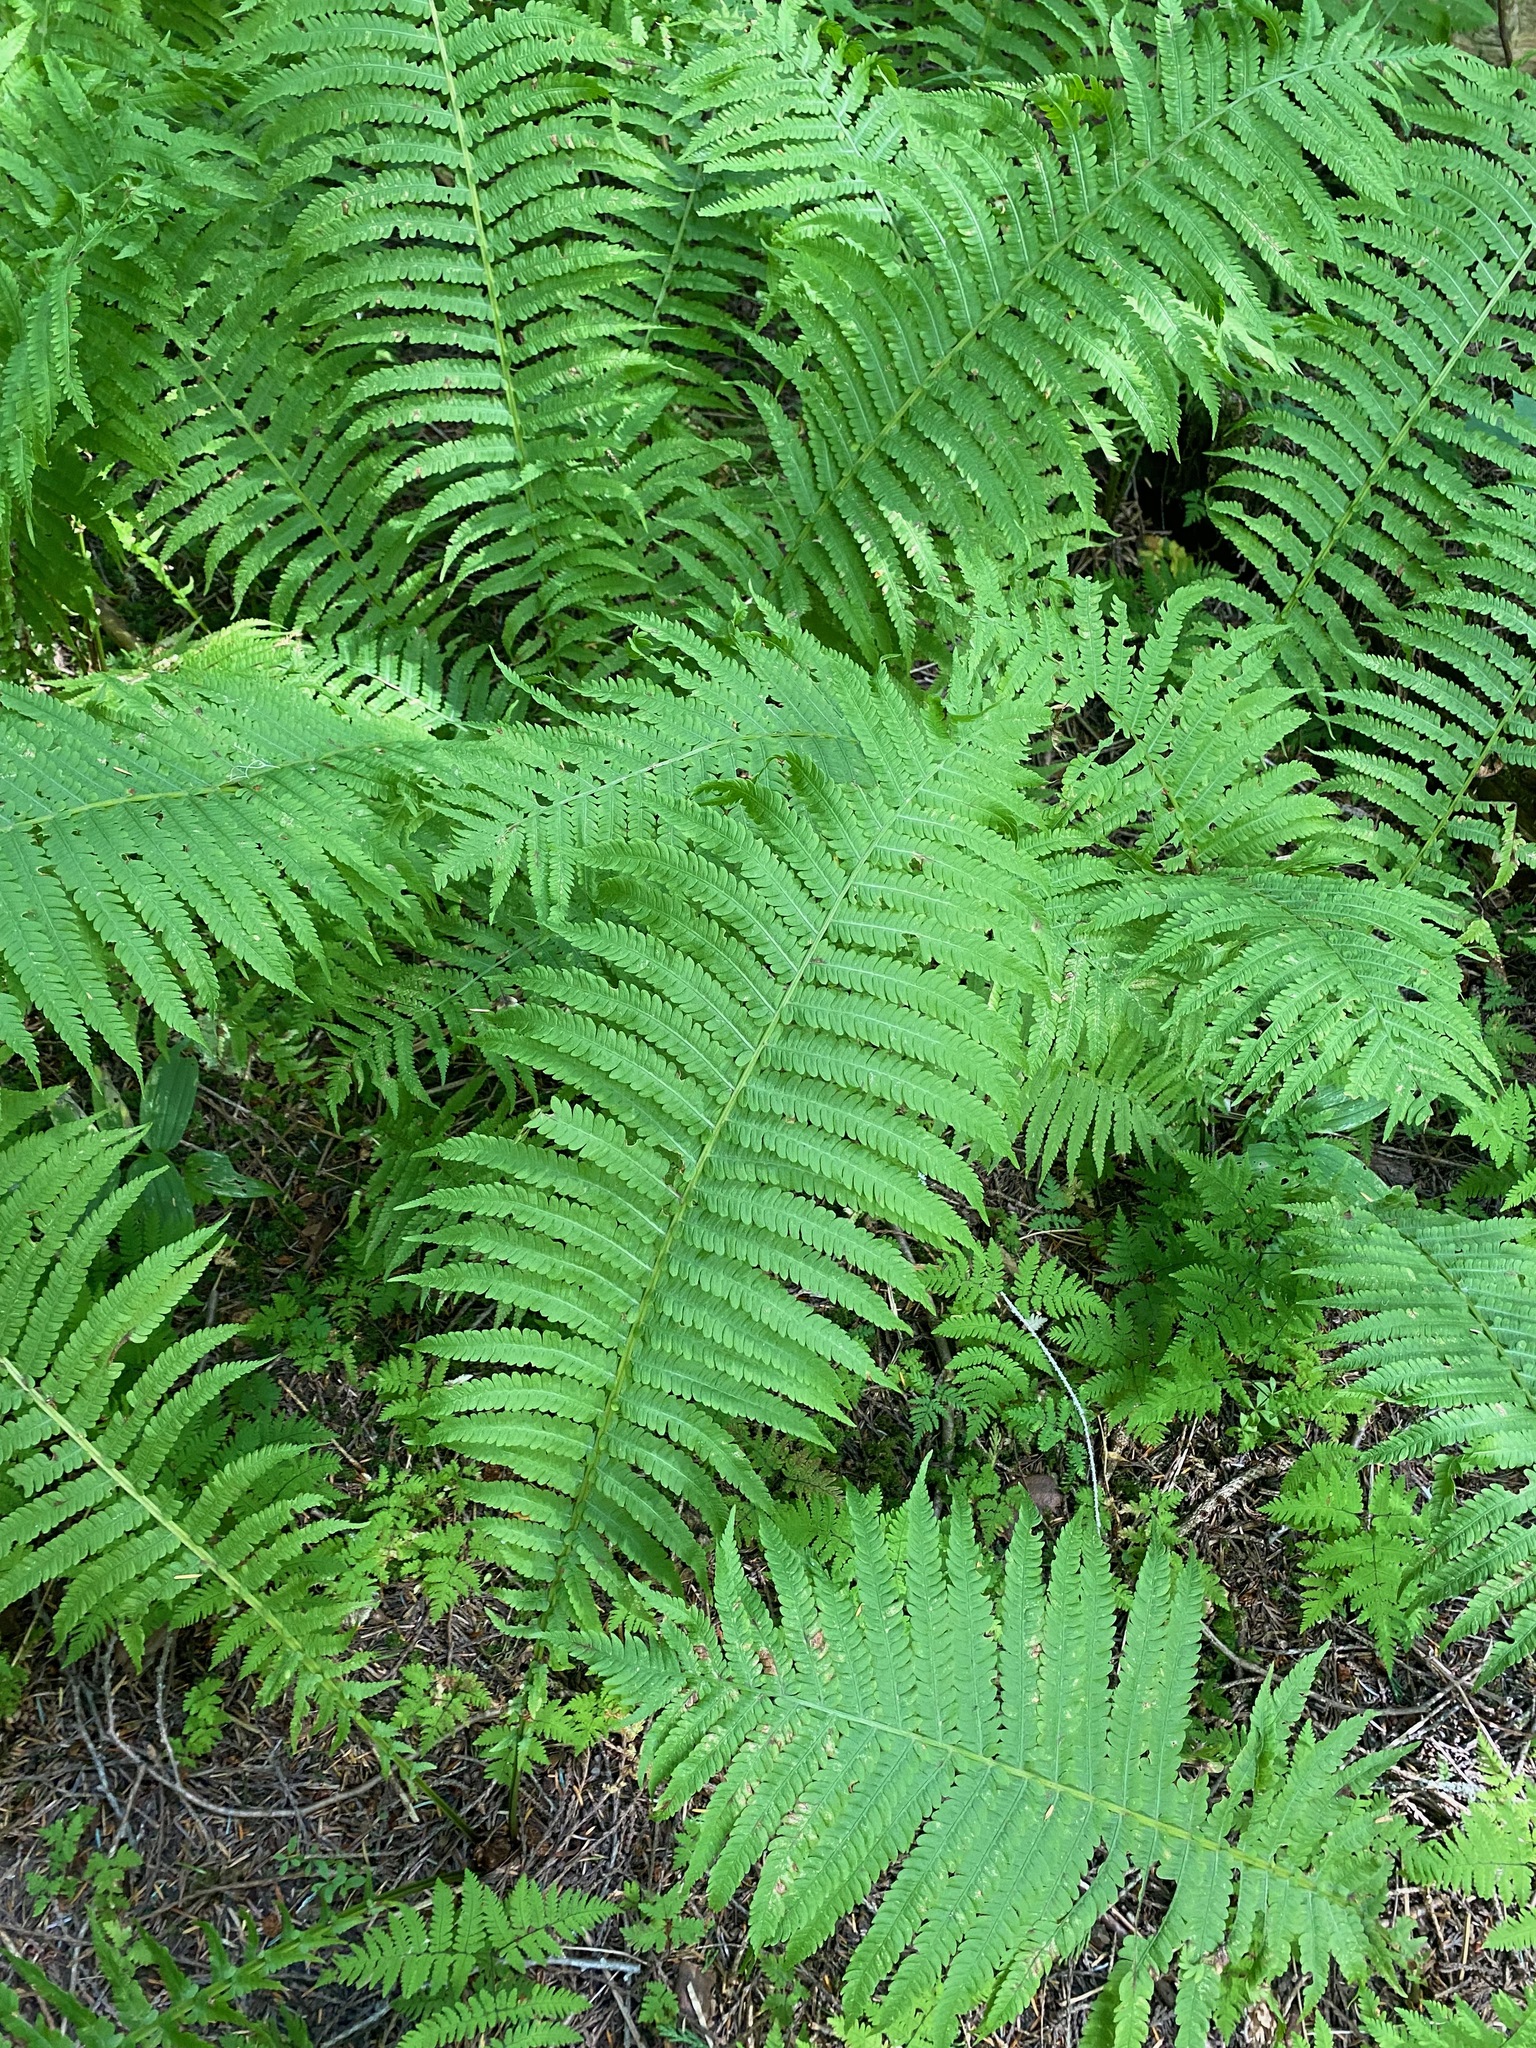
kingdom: Plantae
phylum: Tracheophyta
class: Polypodiopsida
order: Polypodiales
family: Onocleaceae
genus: Matteuccia
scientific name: Matteuccia struthiopteris
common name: Ostrich fern
